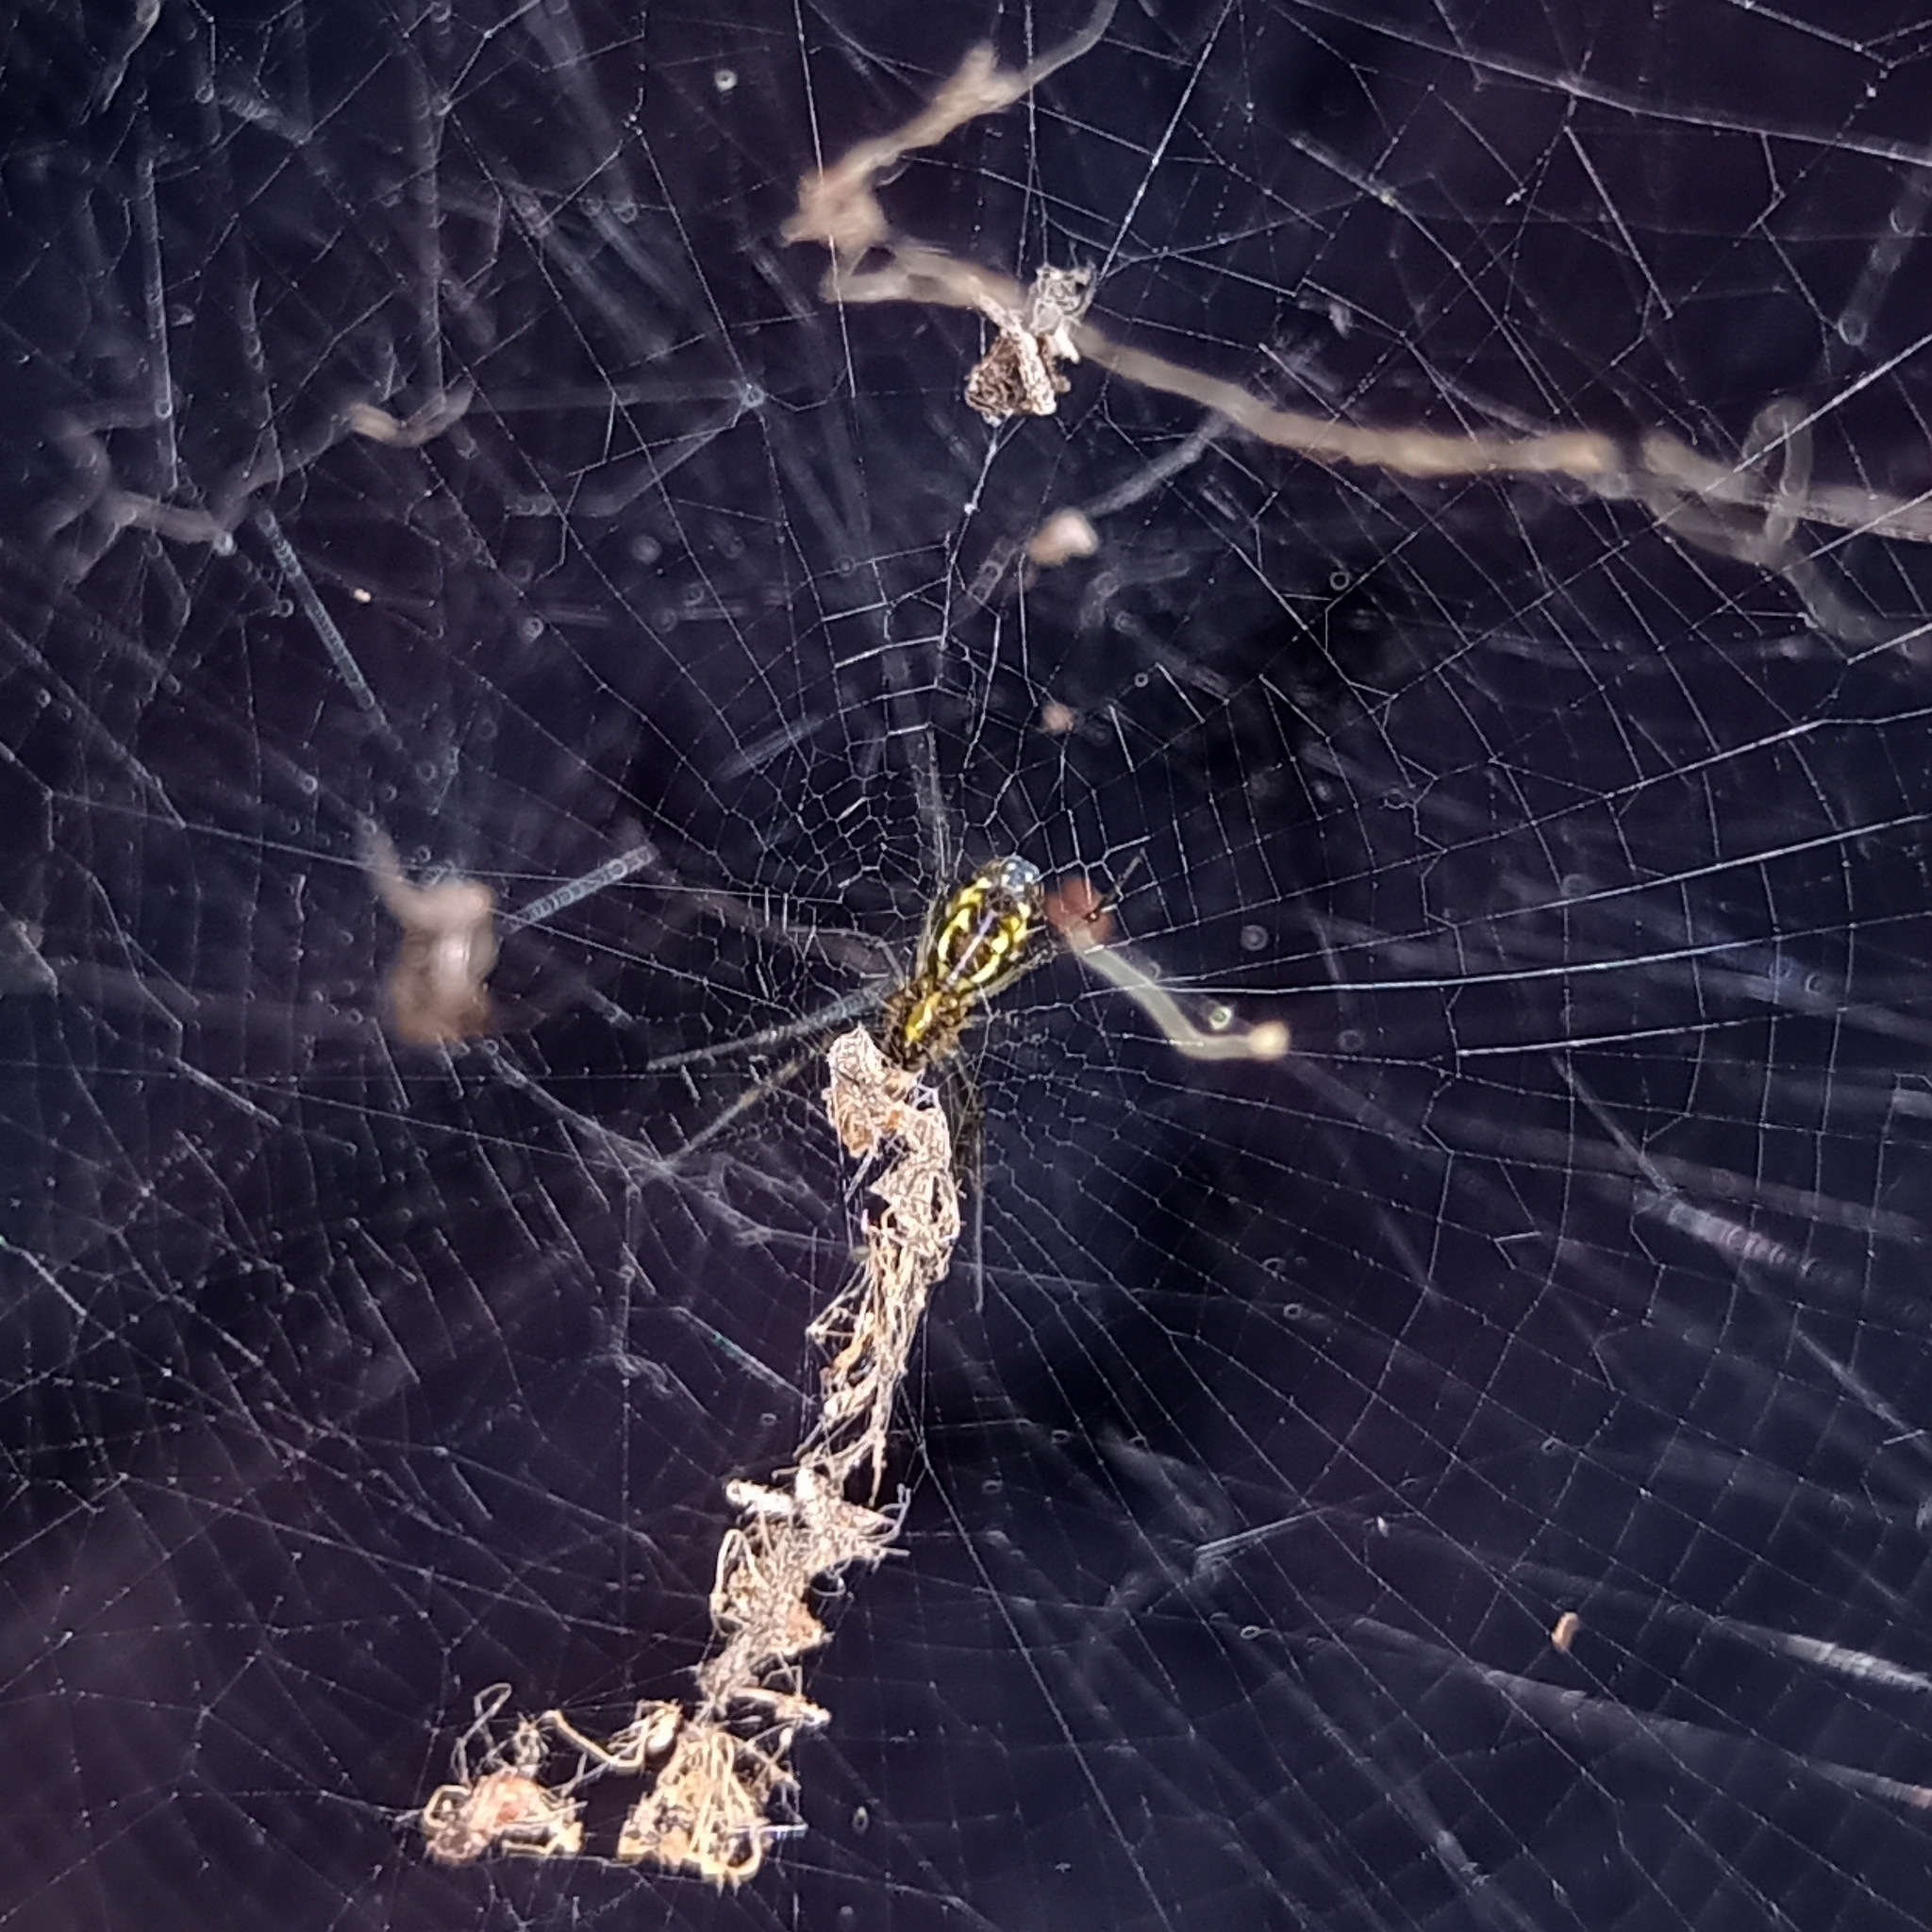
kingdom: Animalia
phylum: Arthropoda
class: Arachnida
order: Araneae
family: Araneidae
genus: Trichonephila
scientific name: Trichonephila clavipes
